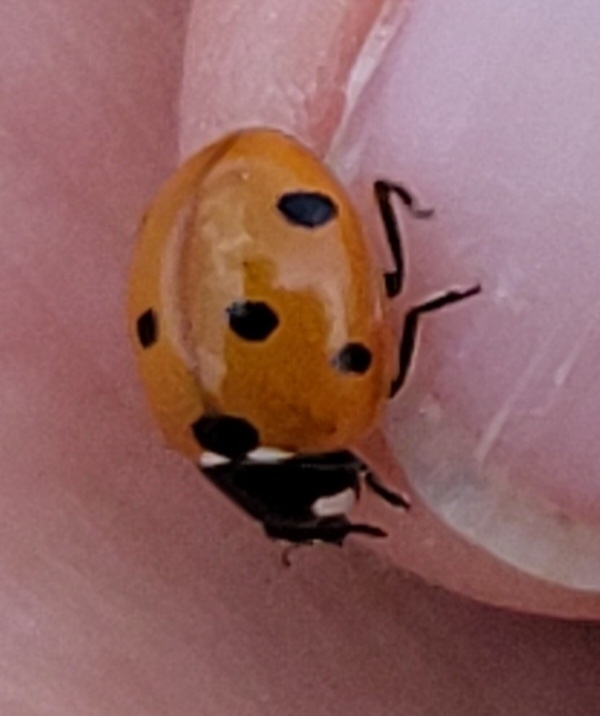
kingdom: Animalia
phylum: Arthropoda
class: Insecta
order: Coleoptera
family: Coccinellidae
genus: Coccinella
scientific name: Coccinella septempunctata
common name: Sevenspotted lady beetle
